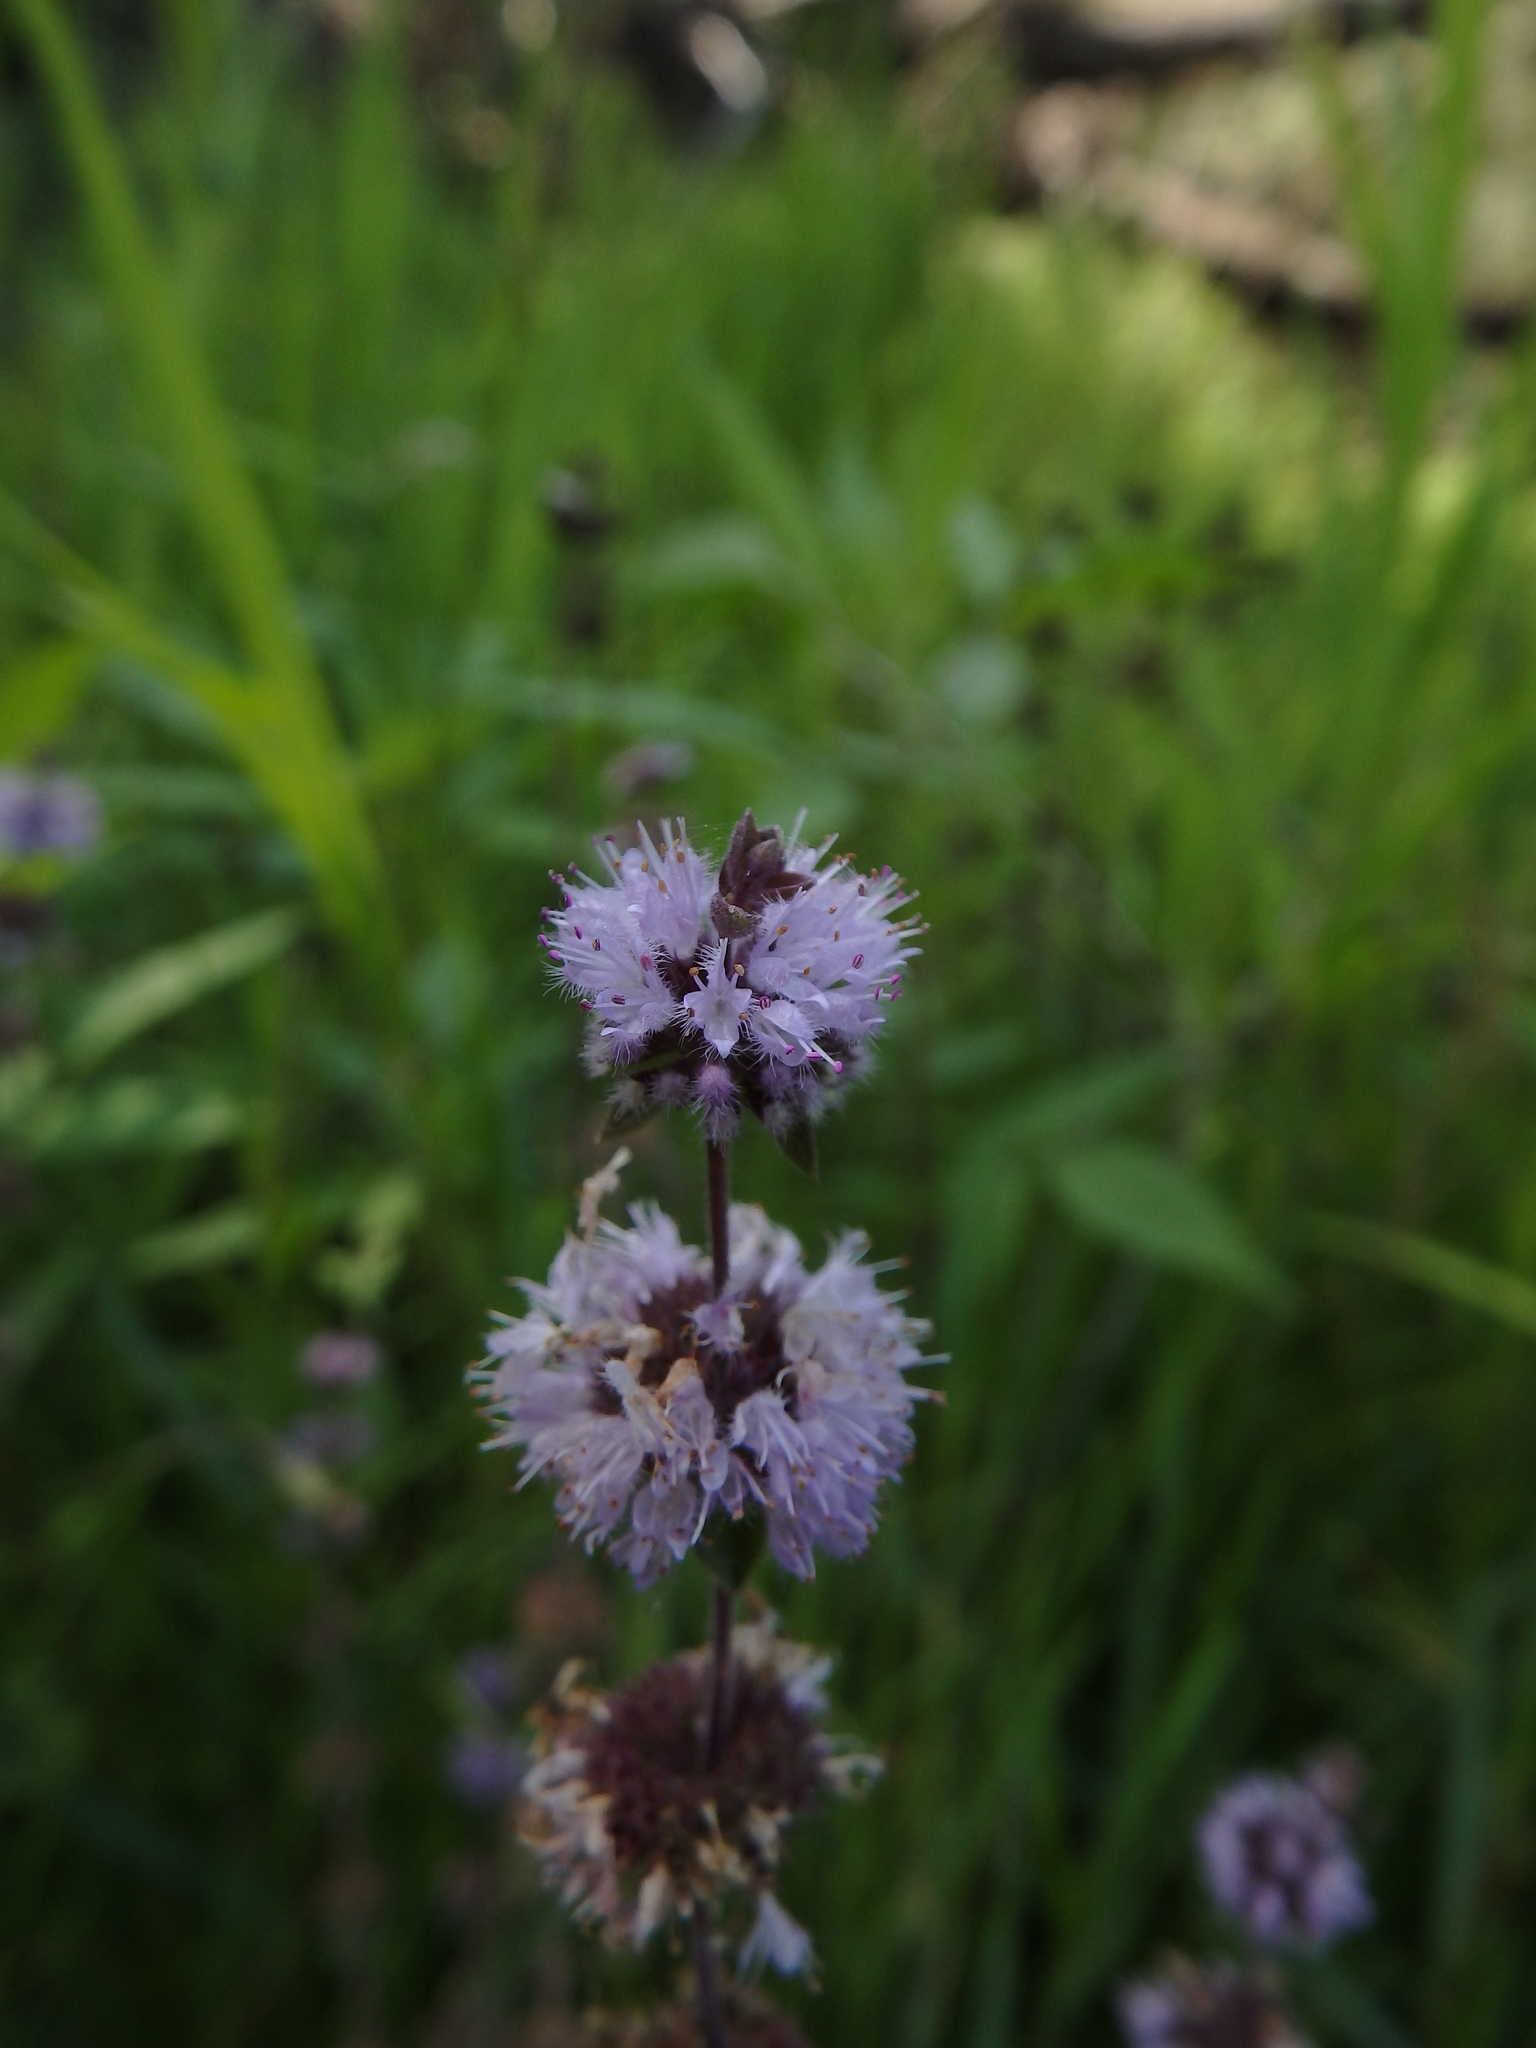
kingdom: Plantae
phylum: Tracheophyta
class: Magnoliopsida
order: Lamiales
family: Lamiaceae
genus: Mentha
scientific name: Mentha pulegium
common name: Pennyroyal
